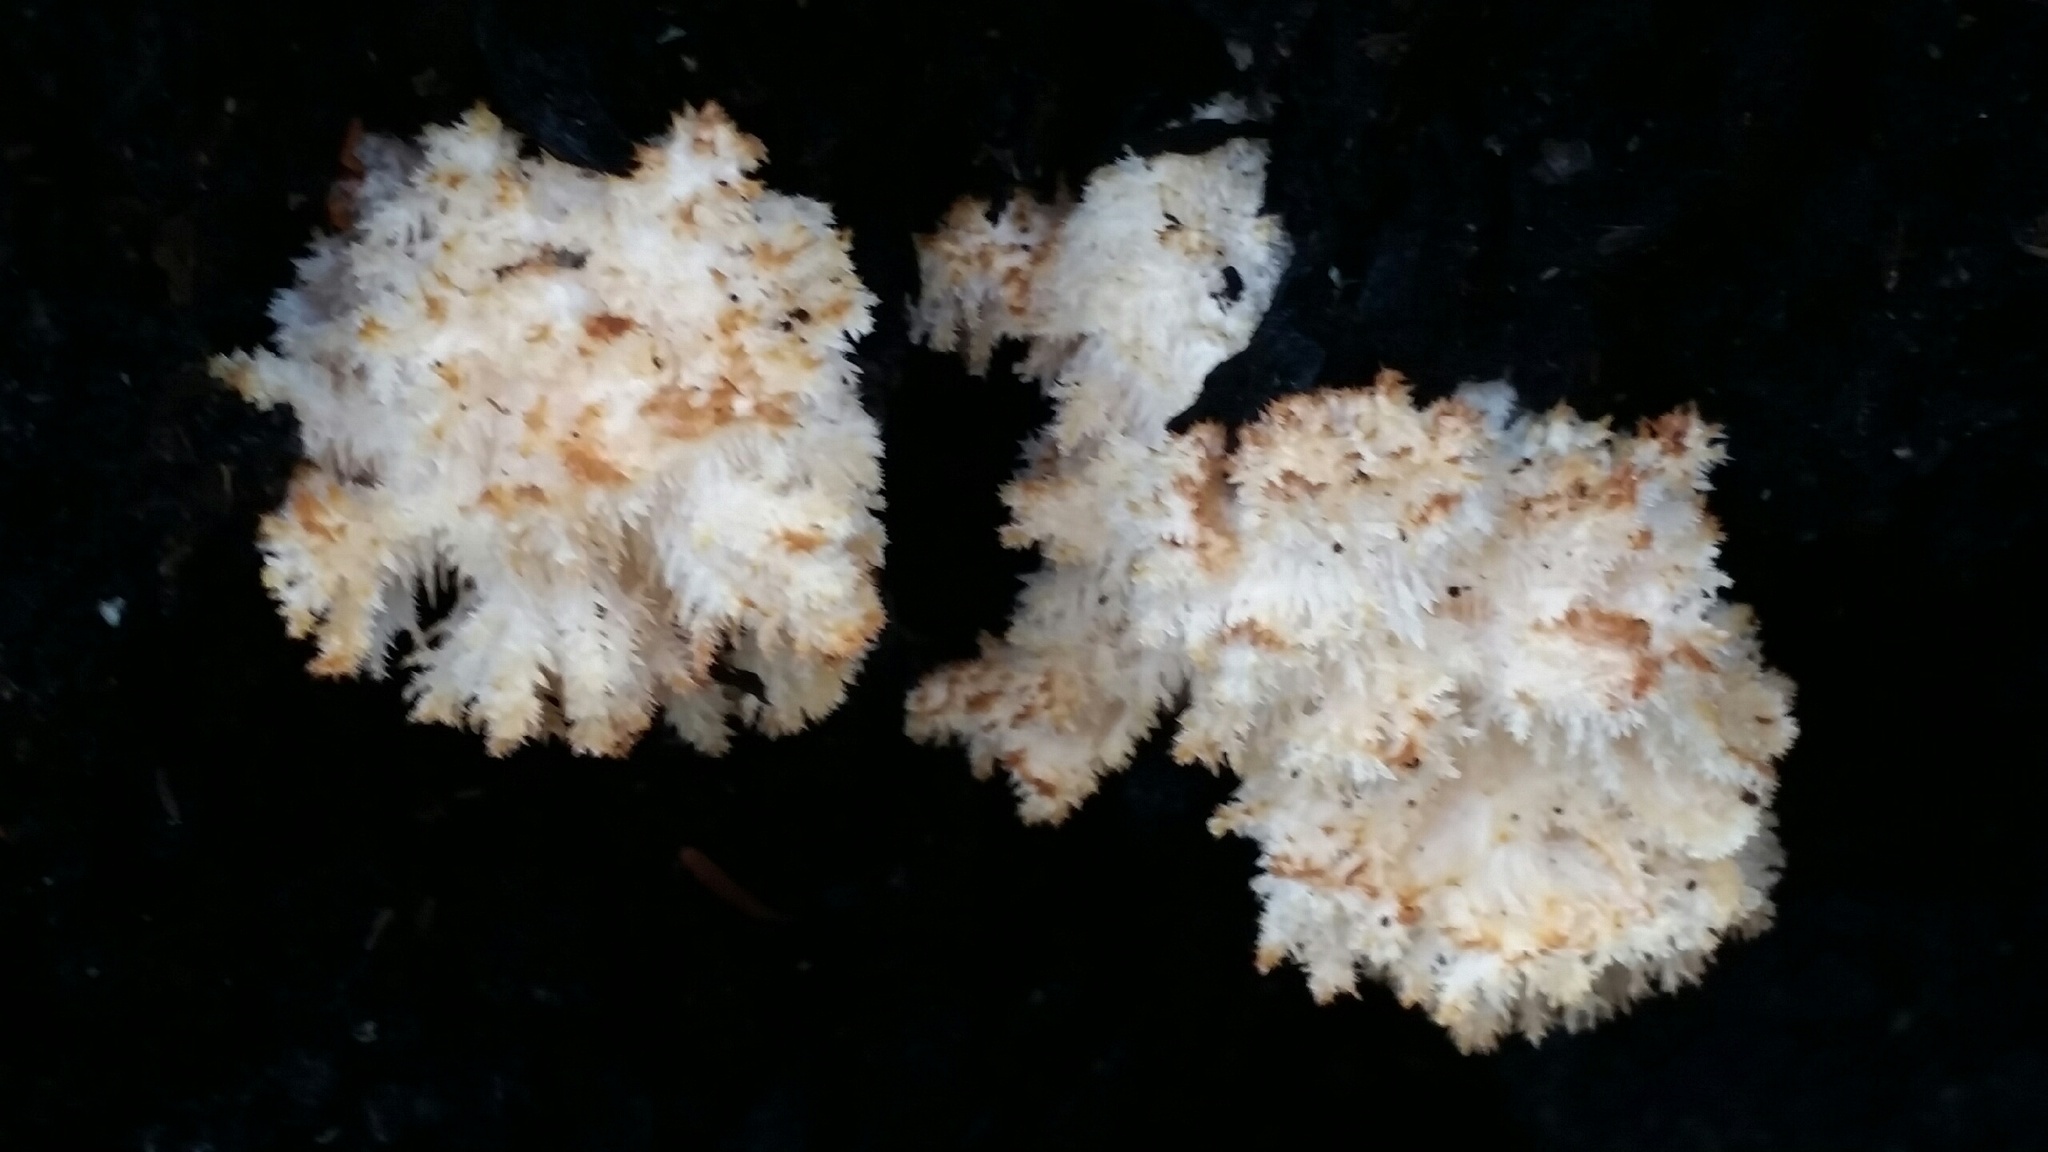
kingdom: Fungi
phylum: Basidiomycota
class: Agaricomycetes
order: Russulales
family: Hericiaceae
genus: Hericium
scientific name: Hericium coralloides
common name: Coral tooth
